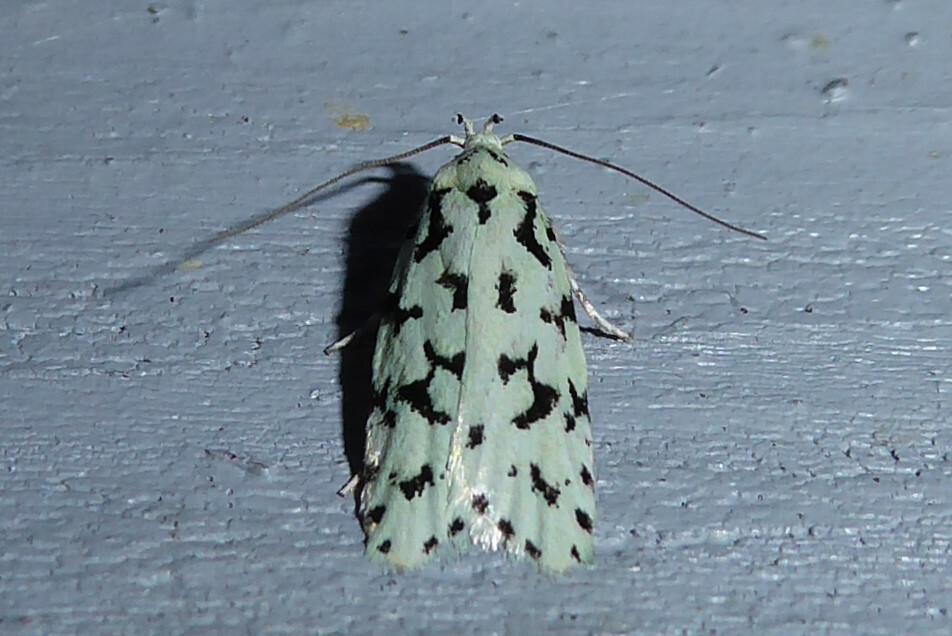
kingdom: Animalia
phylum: Arthropoda
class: Insecta
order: Lepidoptera
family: Oecophoridae
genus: Izatha
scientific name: Izatha huttoni
